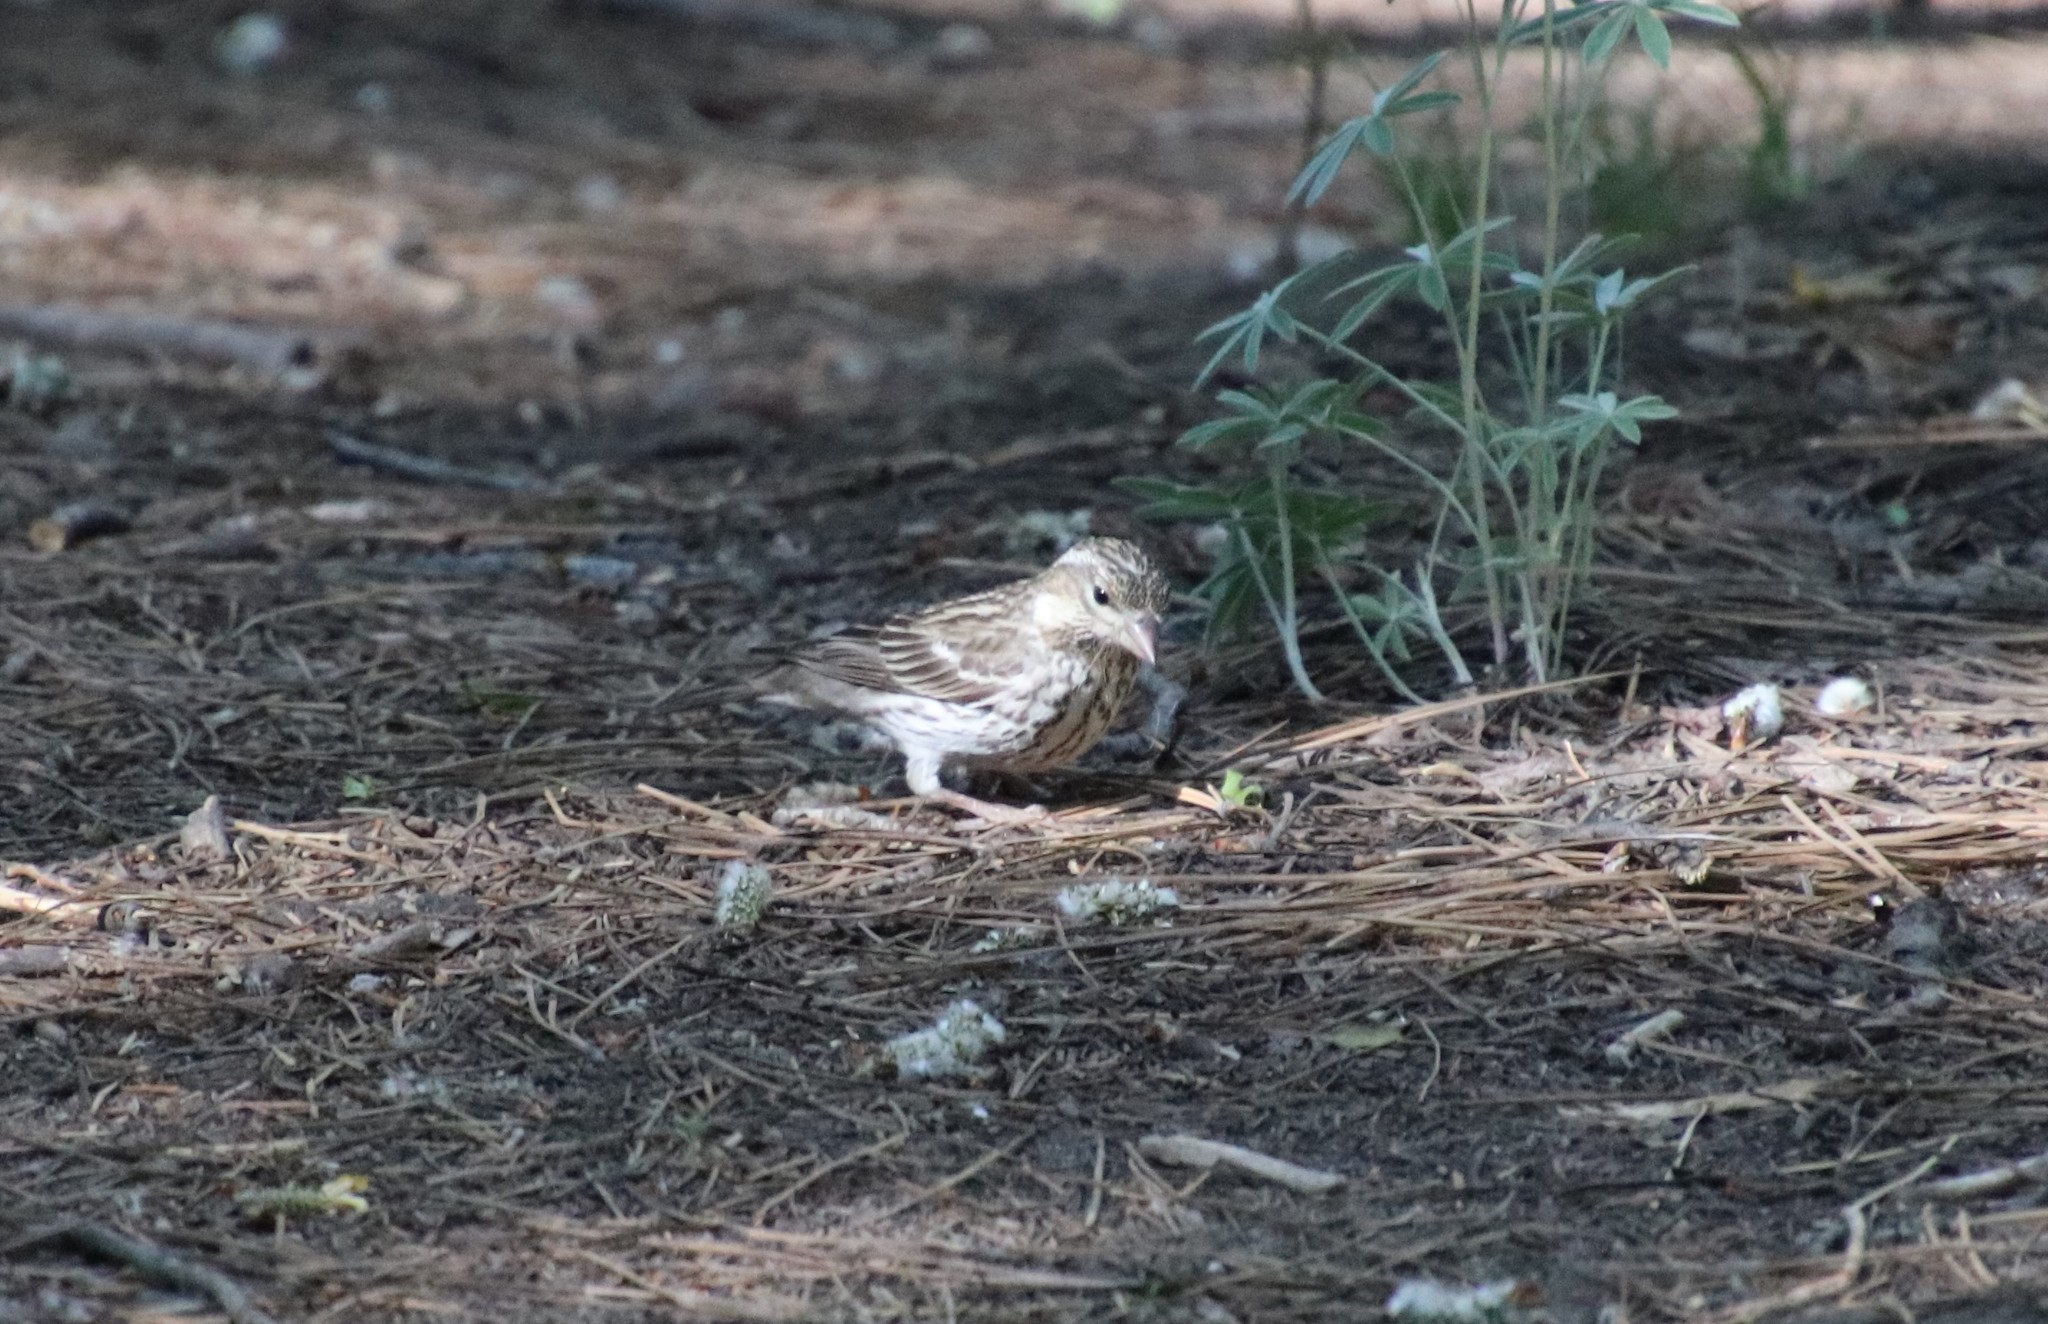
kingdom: Animalia
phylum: Chordata
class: Aves
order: Passeriformes
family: Fringillidae
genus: Haemorhous
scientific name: Haemorhous cassinii
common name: Cassin's finch
